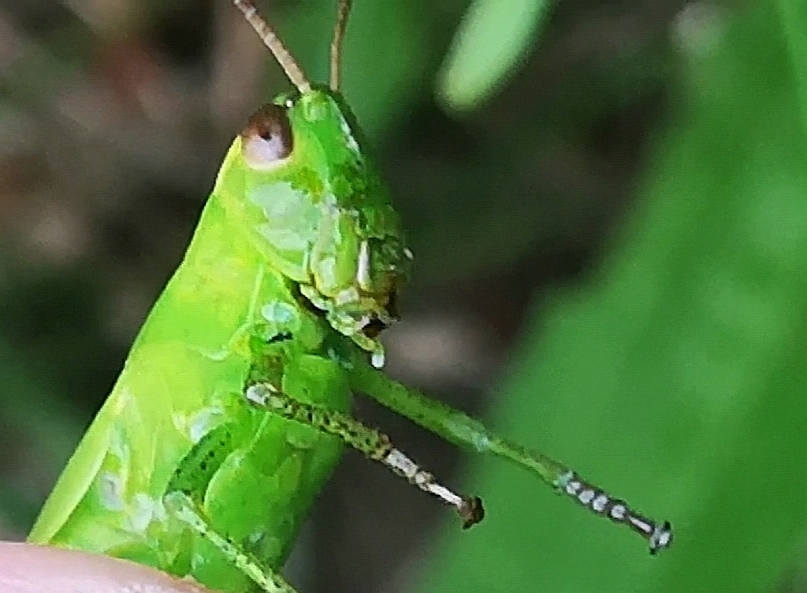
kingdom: Animalia
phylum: Arthropoda
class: Insecta
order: Orthoptera
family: Acrididae
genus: Mecostethus
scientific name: Mecostethus parapleurus
